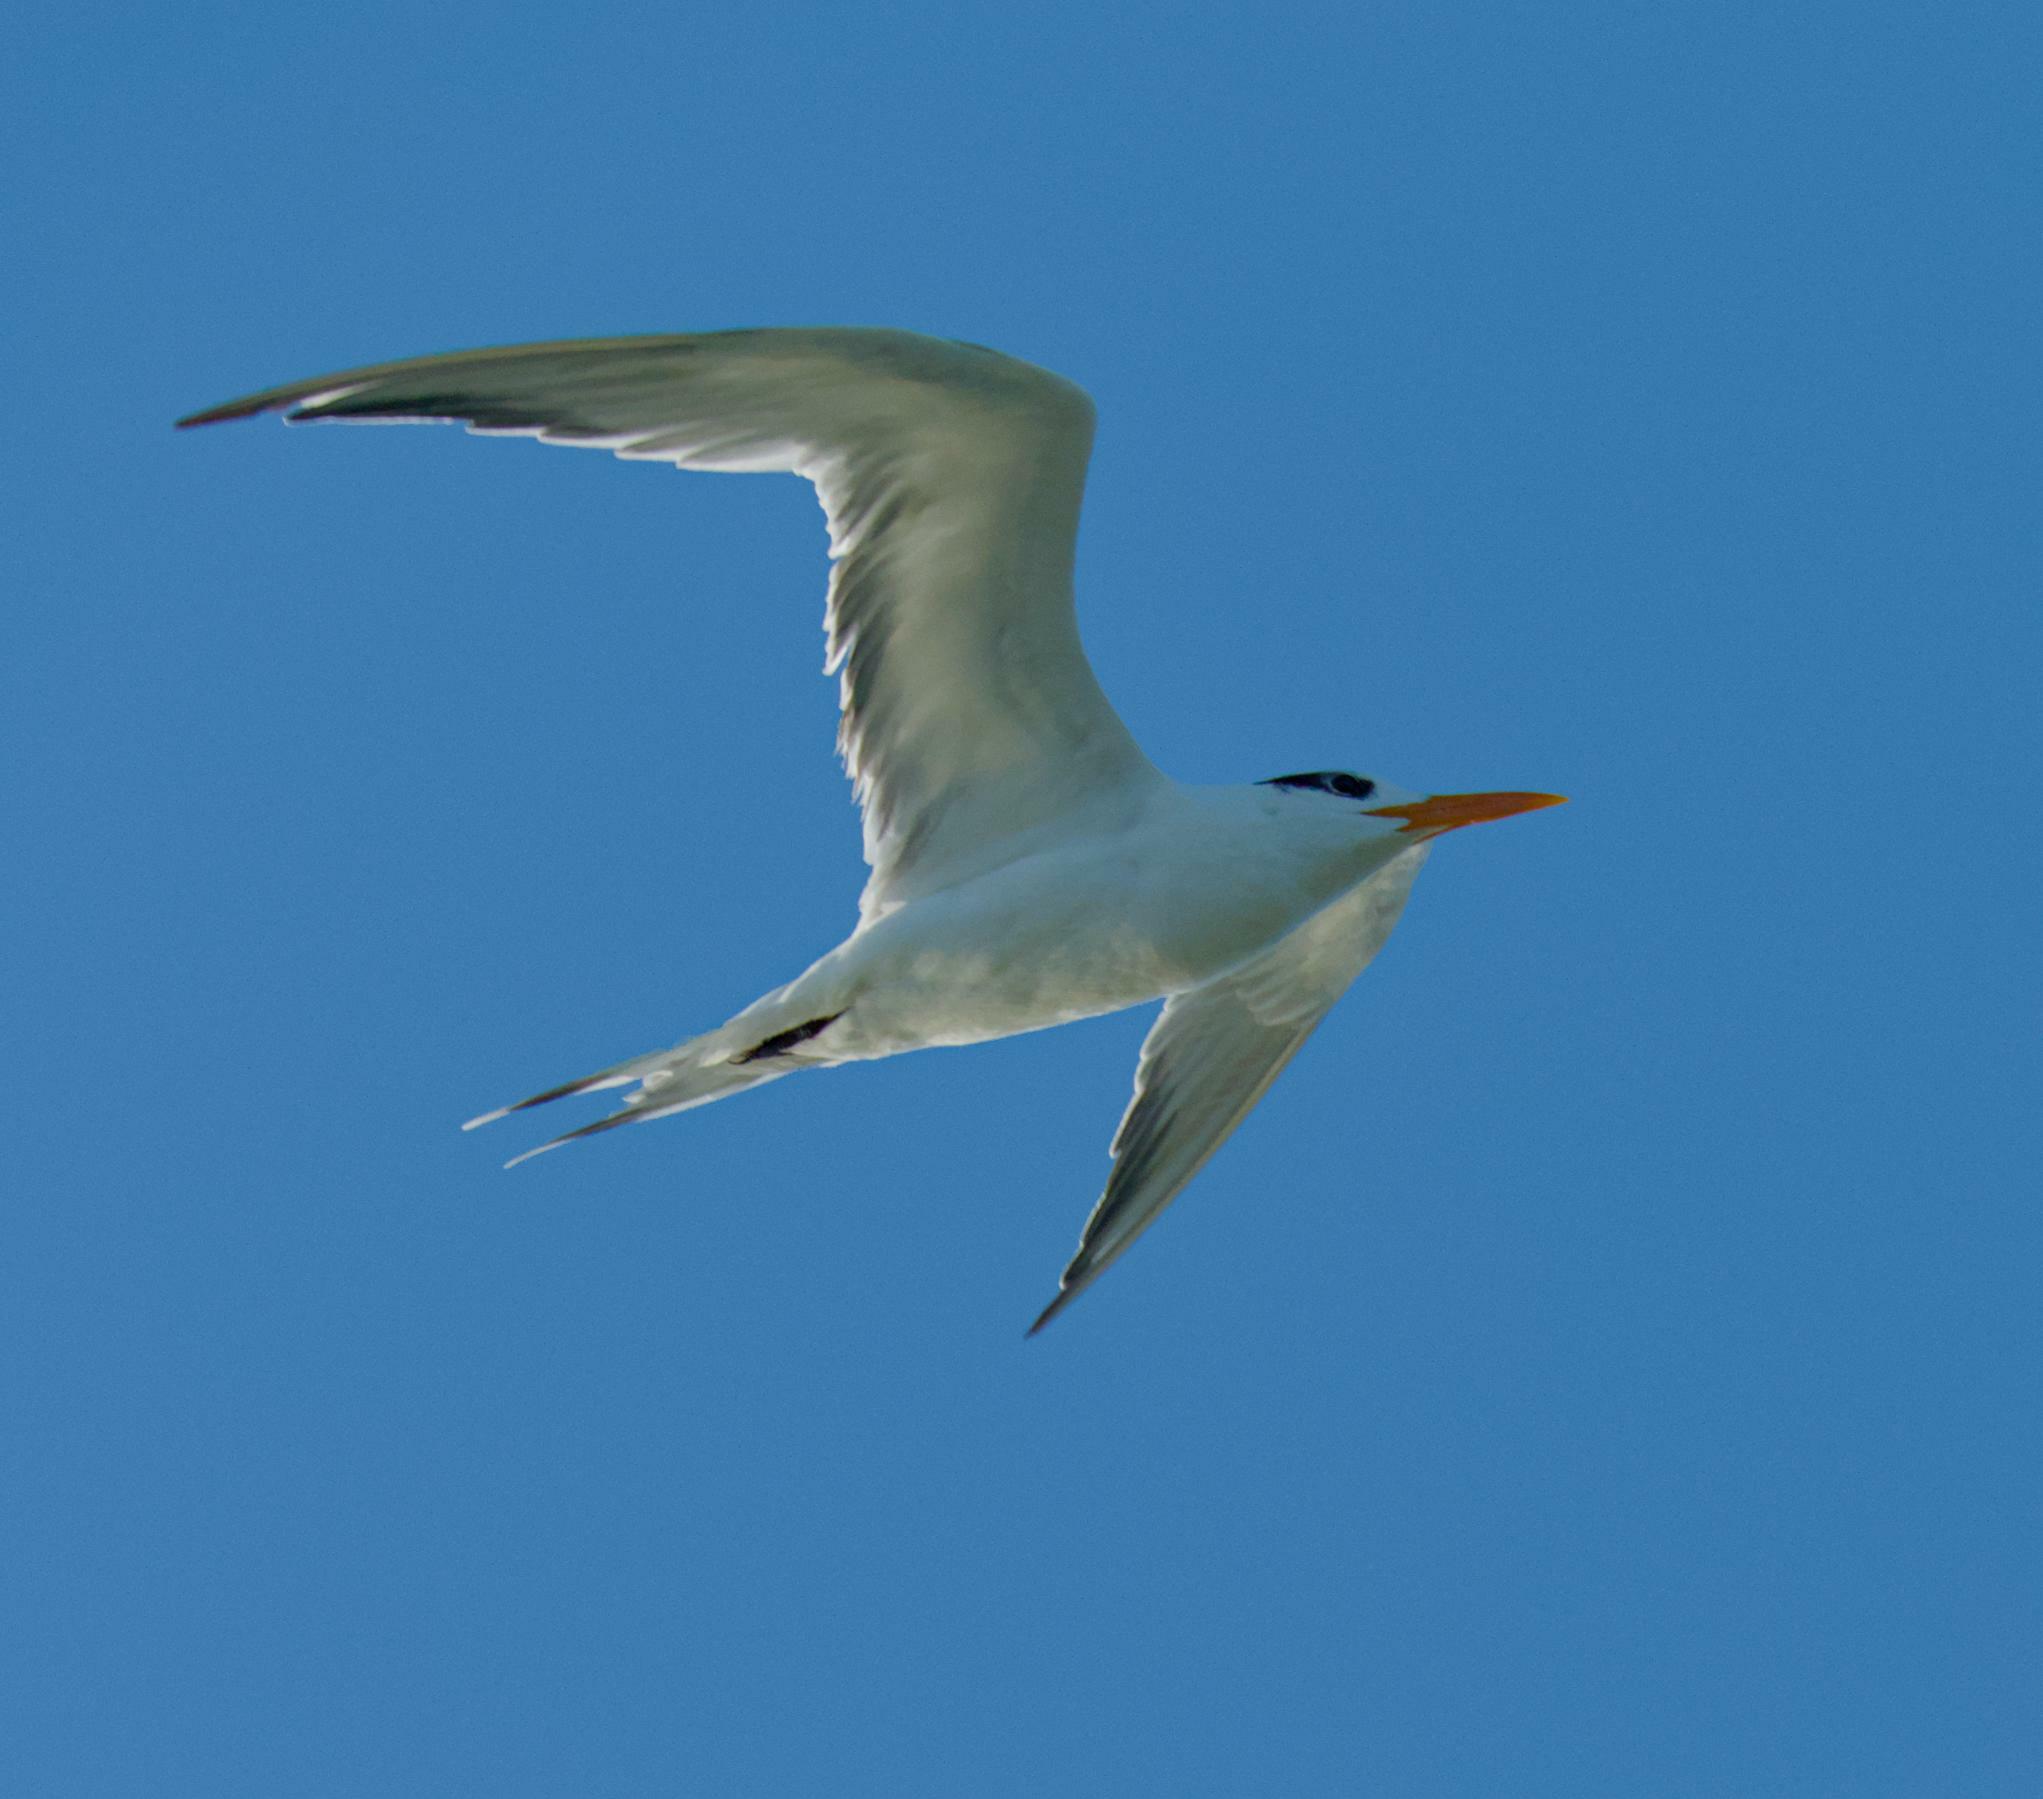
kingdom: Animalia
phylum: Chordata
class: Aves
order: Charadriiformes
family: Laridae
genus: Thalasseus
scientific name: Thalasseus maximus
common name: Royal tern
